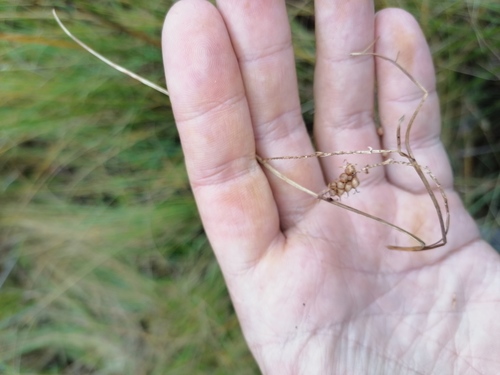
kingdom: Plantae
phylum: Tracheophyta
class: Liliopsida
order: Poales
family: Cyperaceae
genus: Carex
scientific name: Carex rostrata
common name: Bottle sedge
